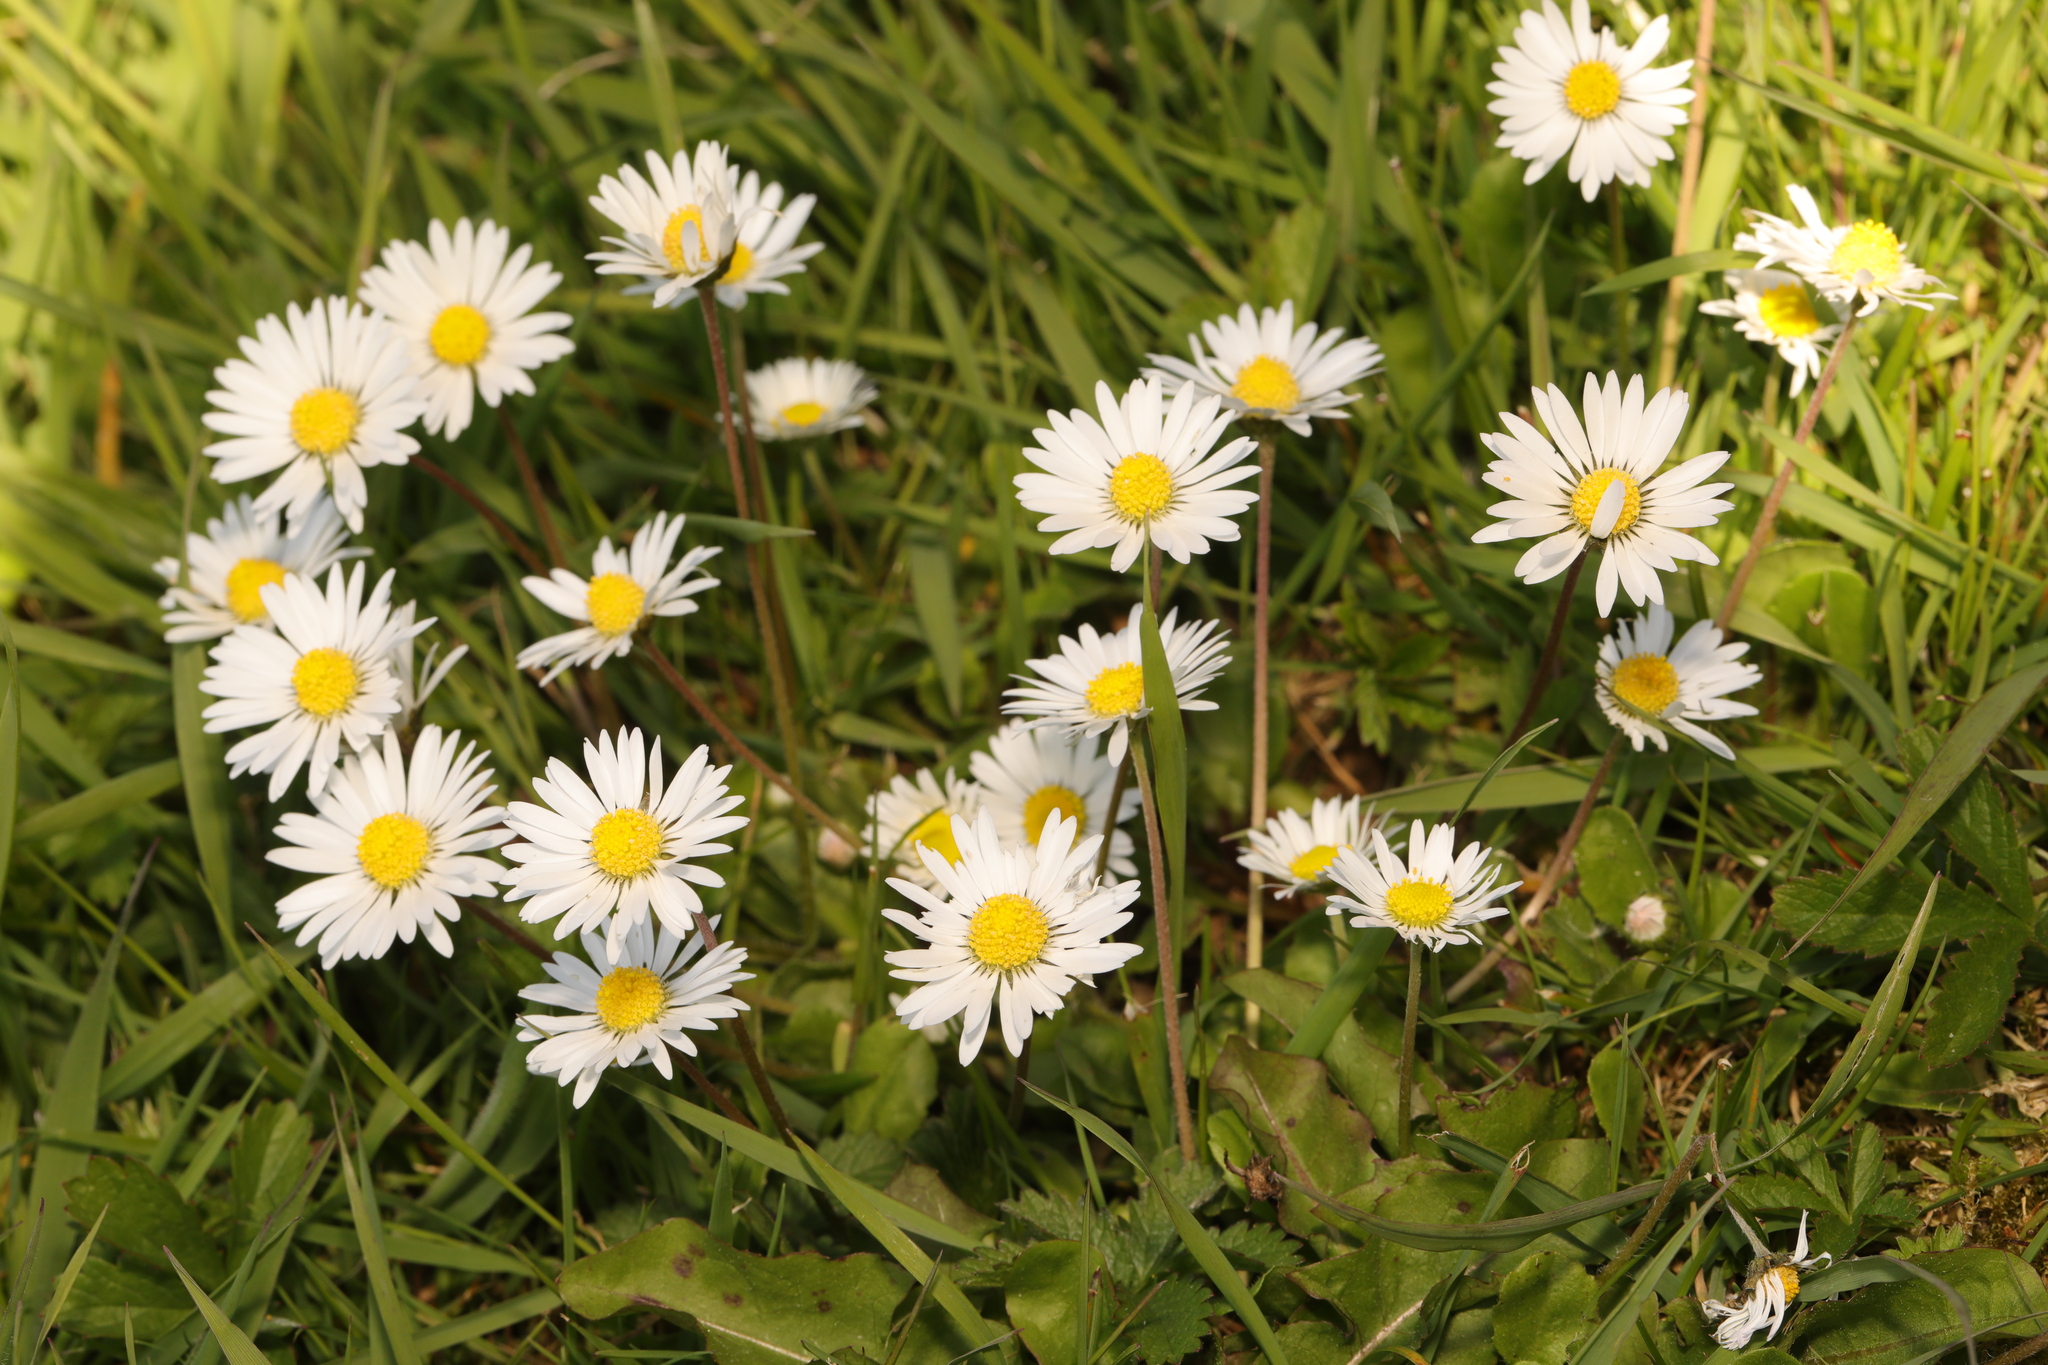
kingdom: Plantae
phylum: Tracheophyta
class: Magnoliopsida
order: Asterales
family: Asteraceae
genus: Bellis
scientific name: Bellis perennis
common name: Lawndaisy
